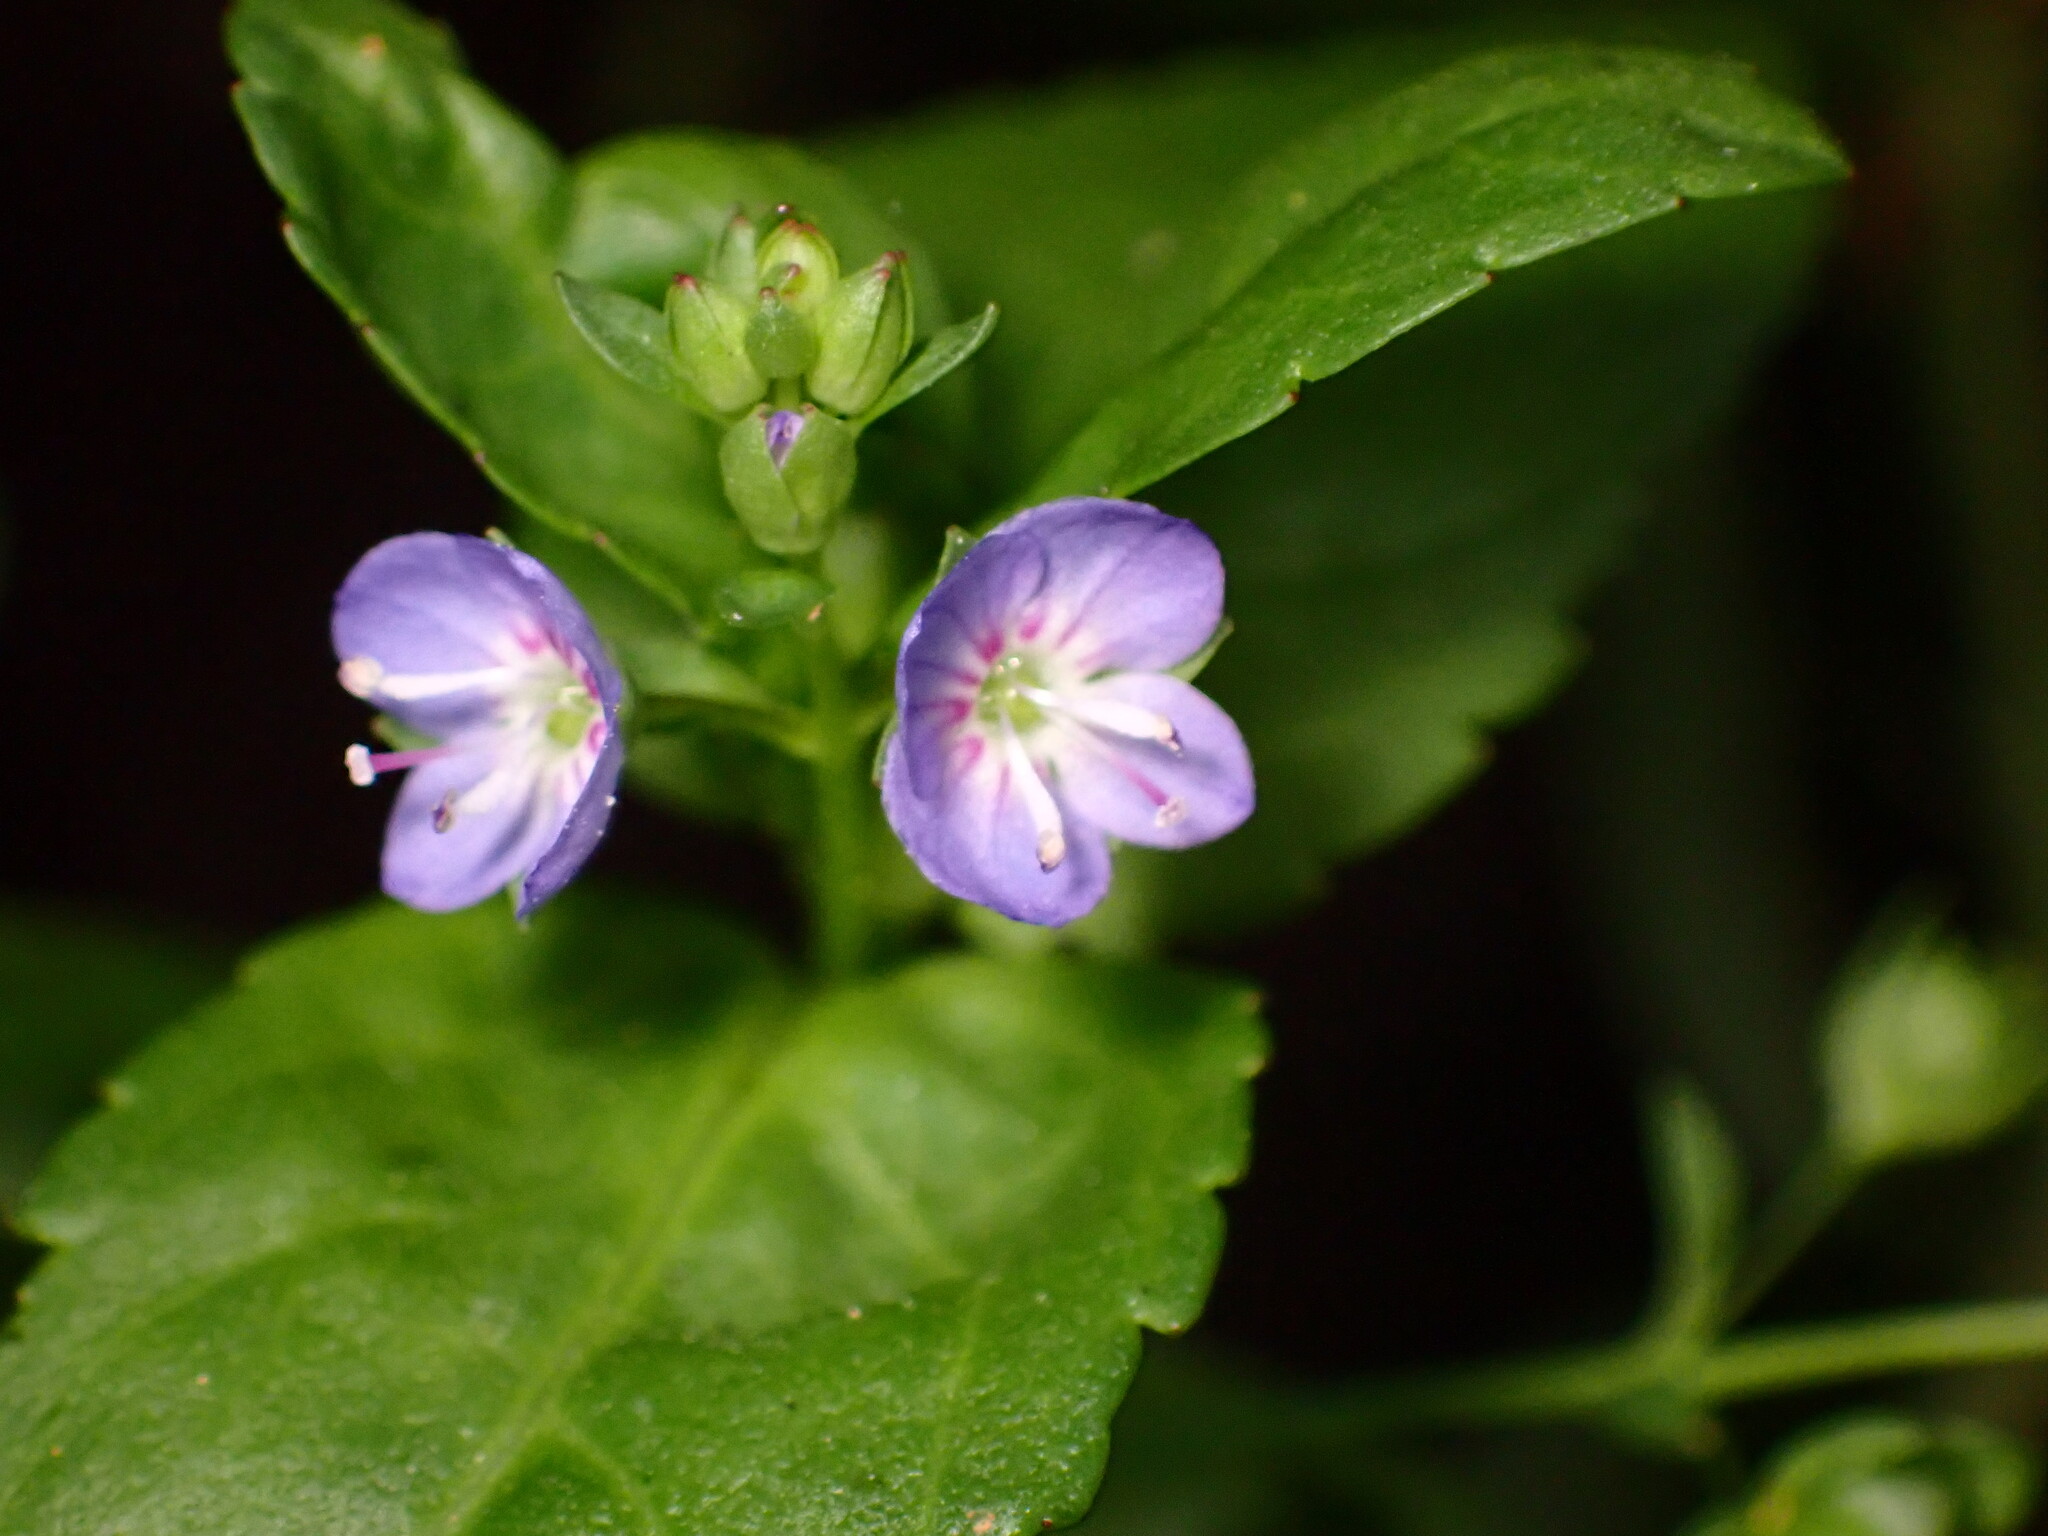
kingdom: Plantae
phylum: Tracheophyta
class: Magnoliopsida
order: Lamiales
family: Plantaginaceae
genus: Veronica
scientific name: Veronica americana
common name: American brooklime
